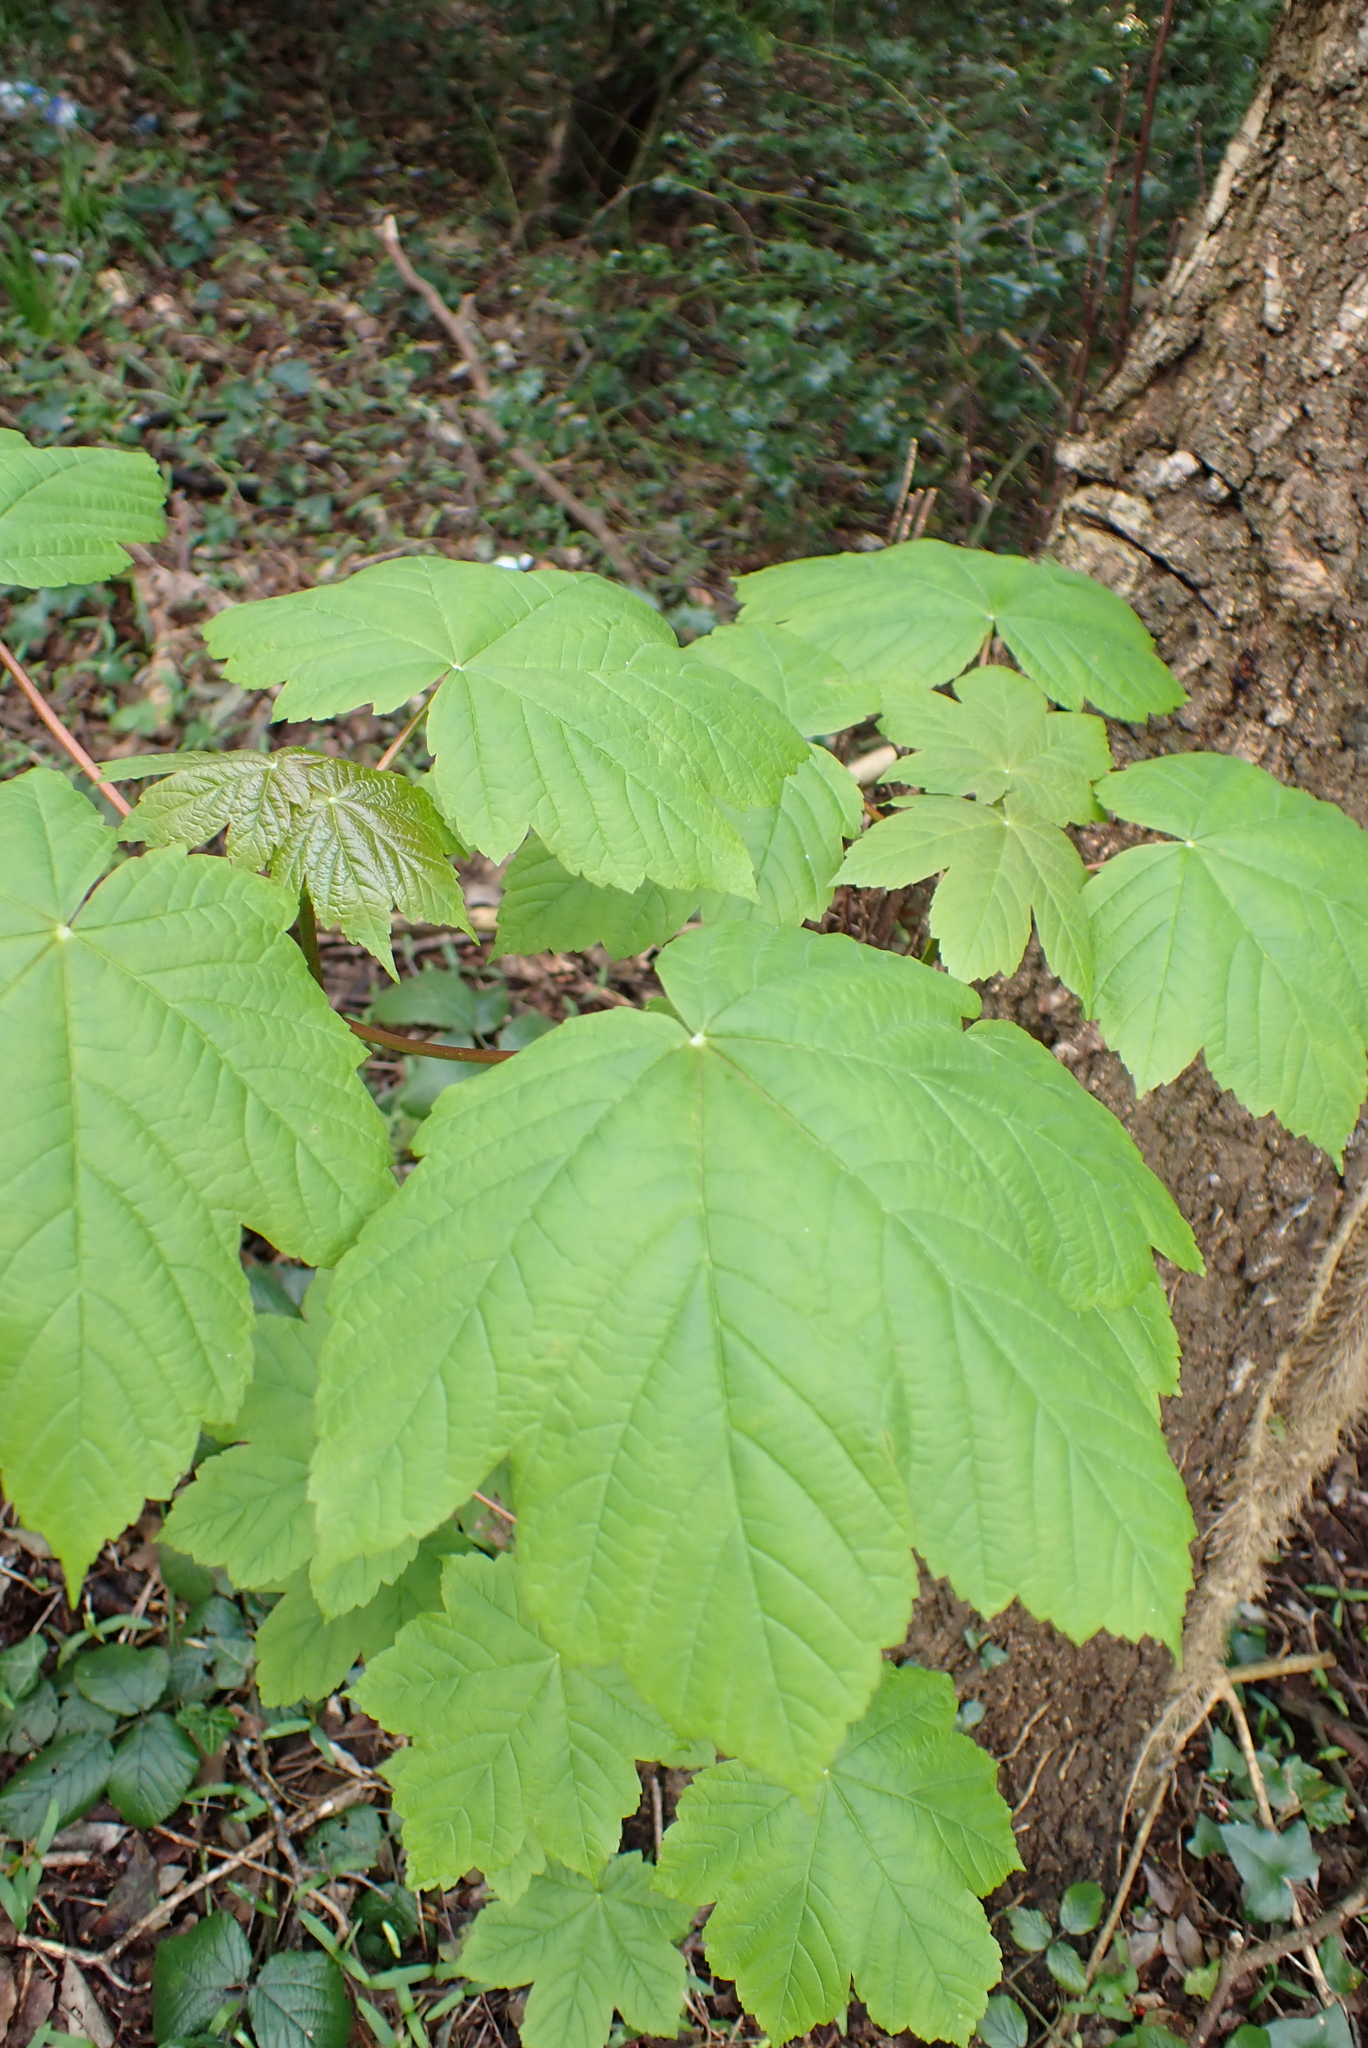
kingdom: Plantae
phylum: Tracheophyta
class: Magnoliopsida
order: Sapindales
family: Sapindaceae
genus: Acer
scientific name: Acer pseudoplatanus
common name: Sycamore
